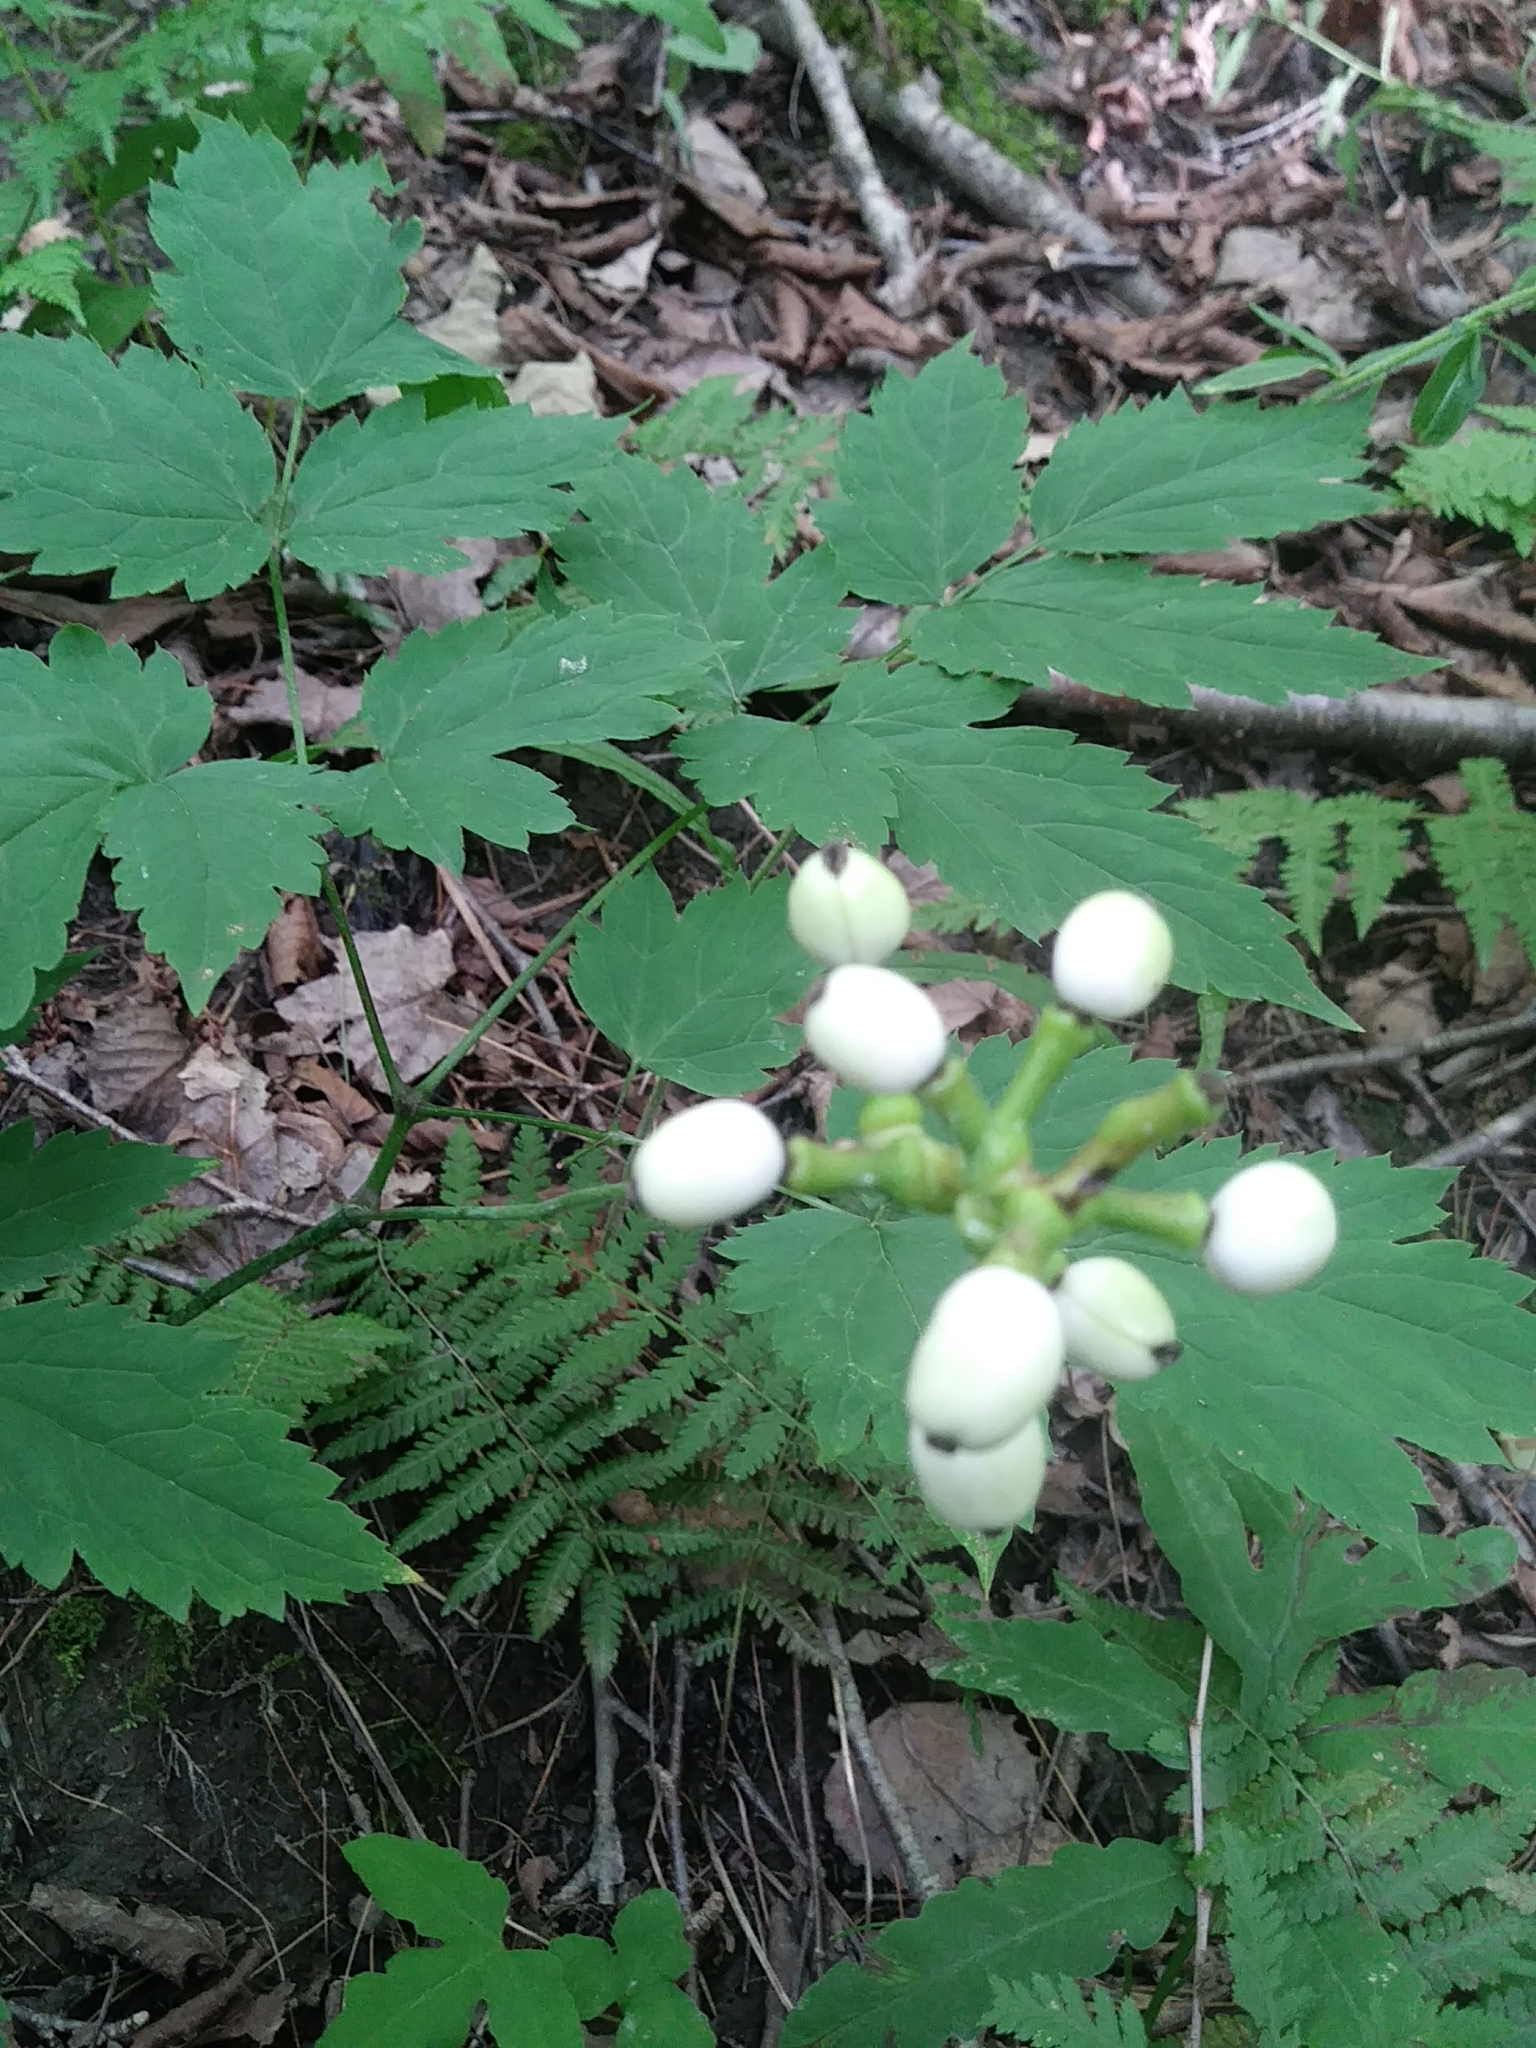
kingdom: Plantae
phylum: Tracheophyta
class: Magnoliopsida
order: Ranunculales
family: Ranunculaceae
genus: Actaea
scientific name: Actaea pachypoda
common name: Doll's-eyes
